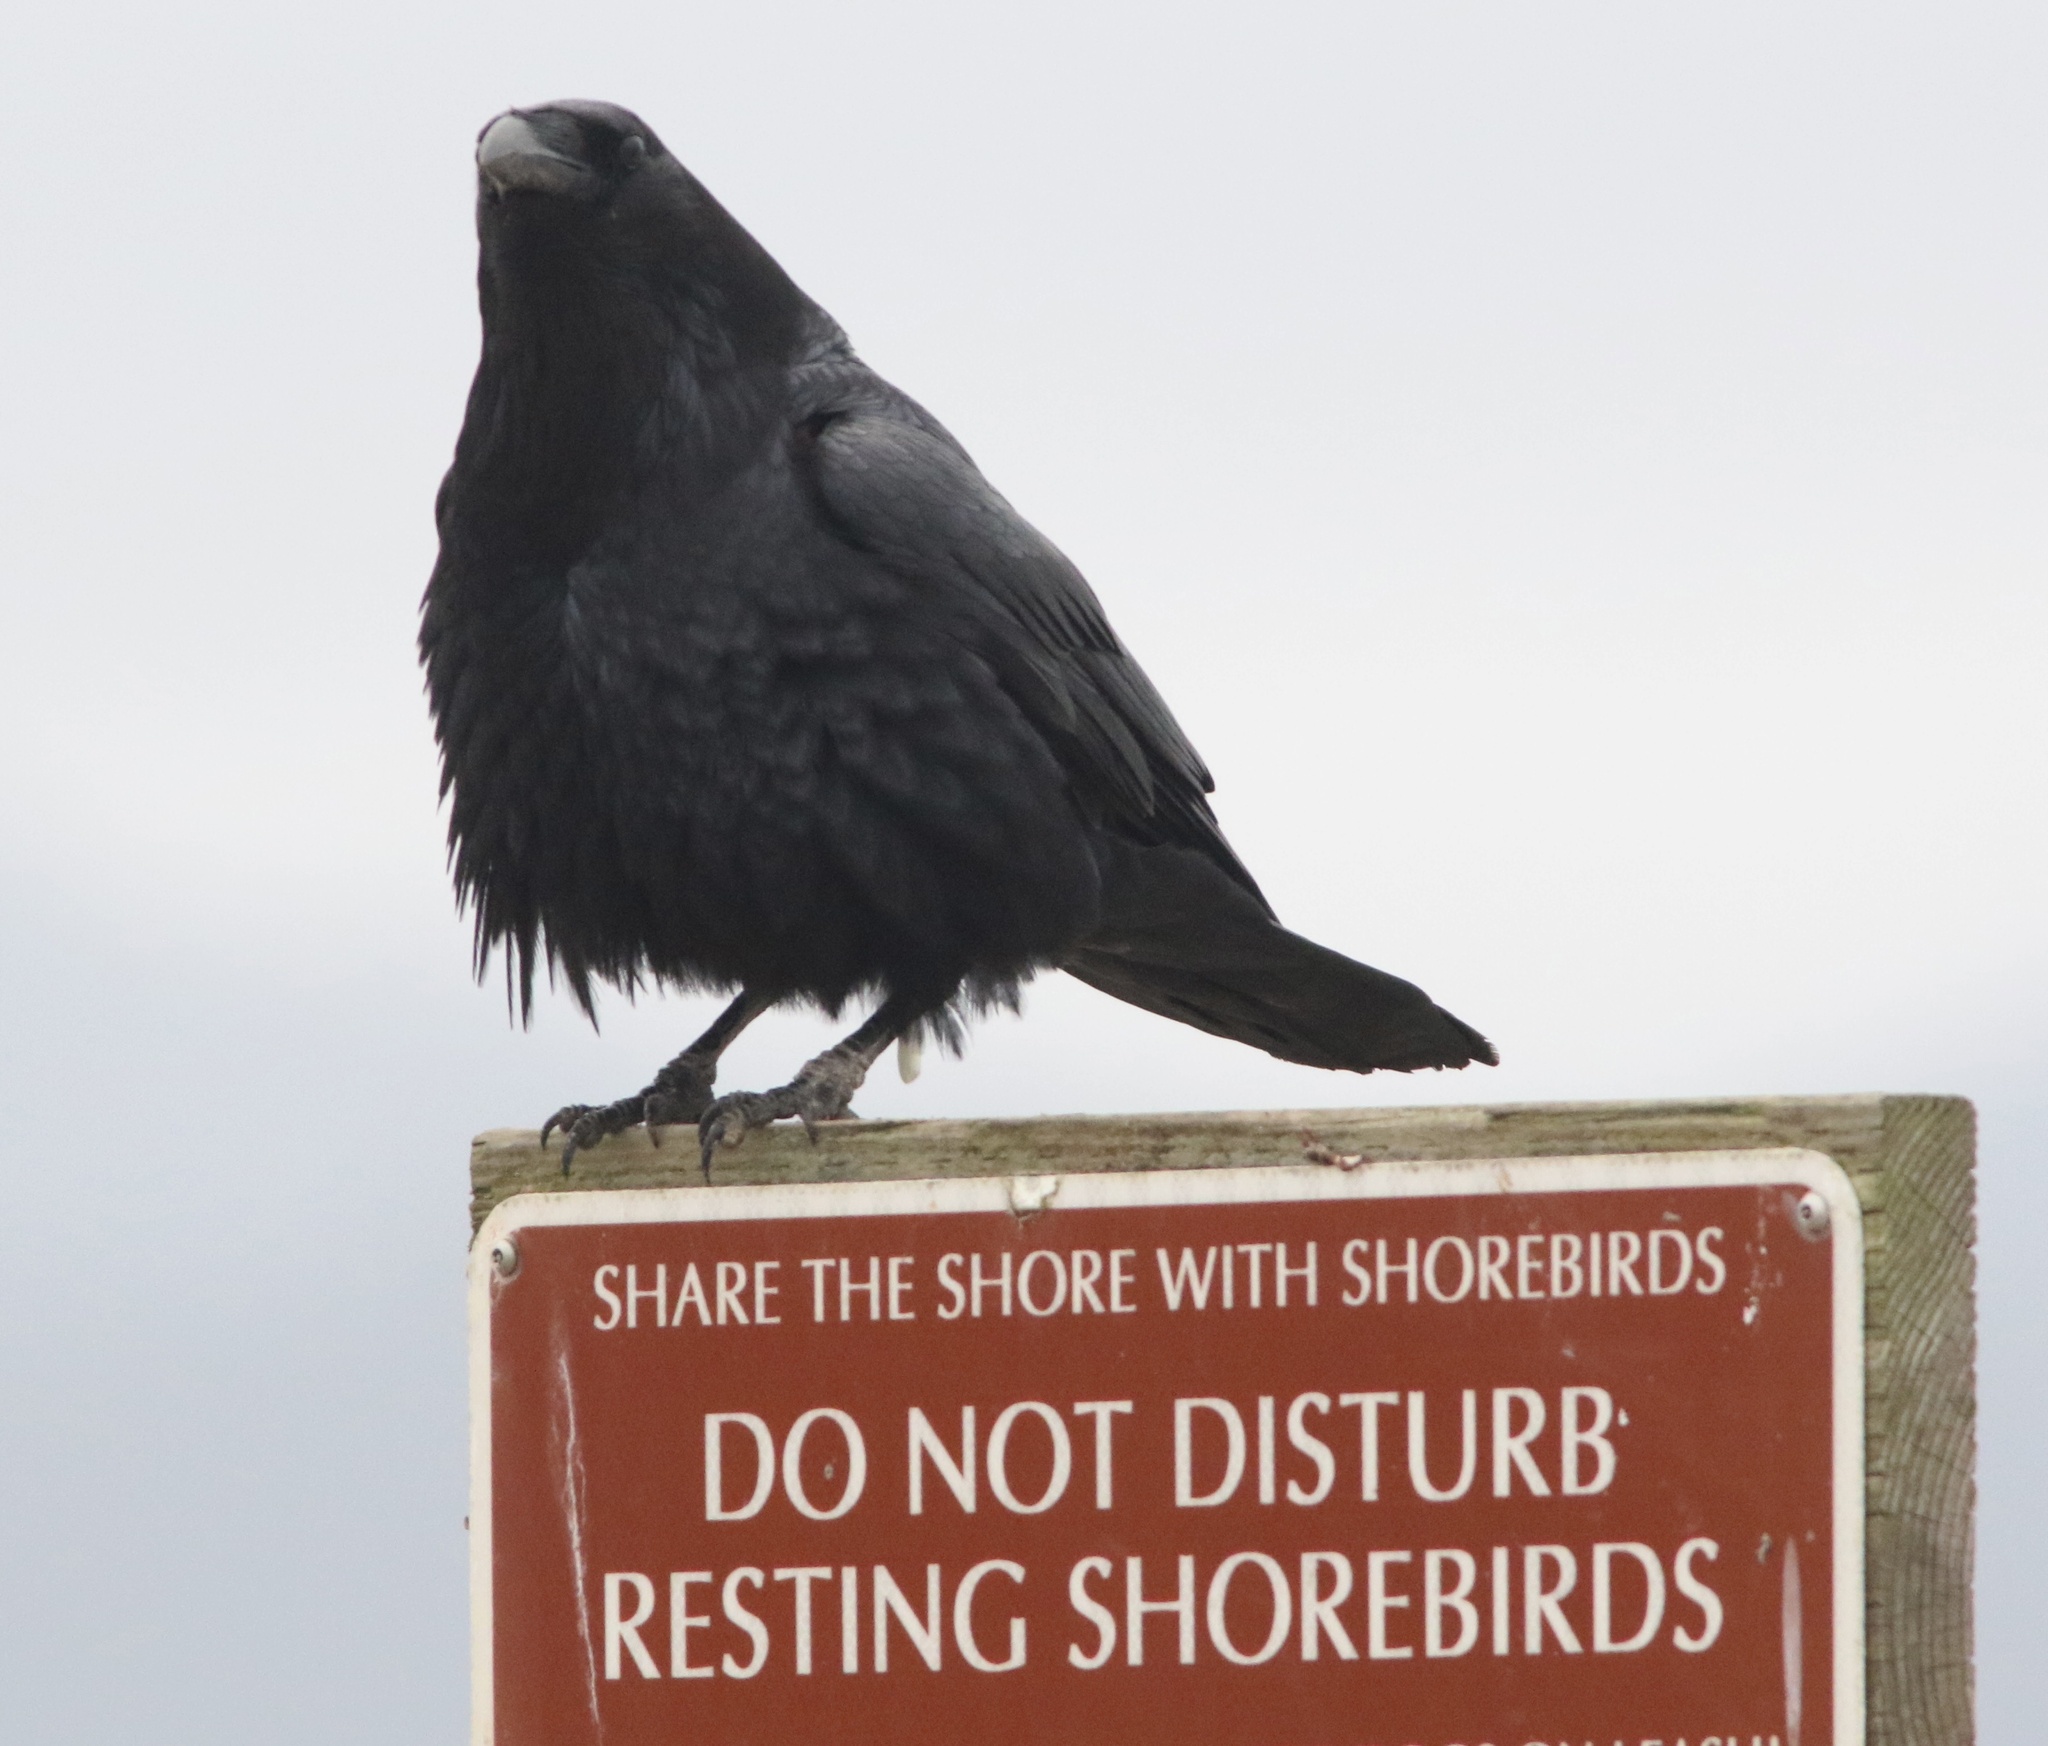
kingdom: Animalia
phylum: Chordata
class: Aves
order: Passeriformes
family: Corvidae
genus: Corvus
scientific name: Corvus corax
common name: Common raven
